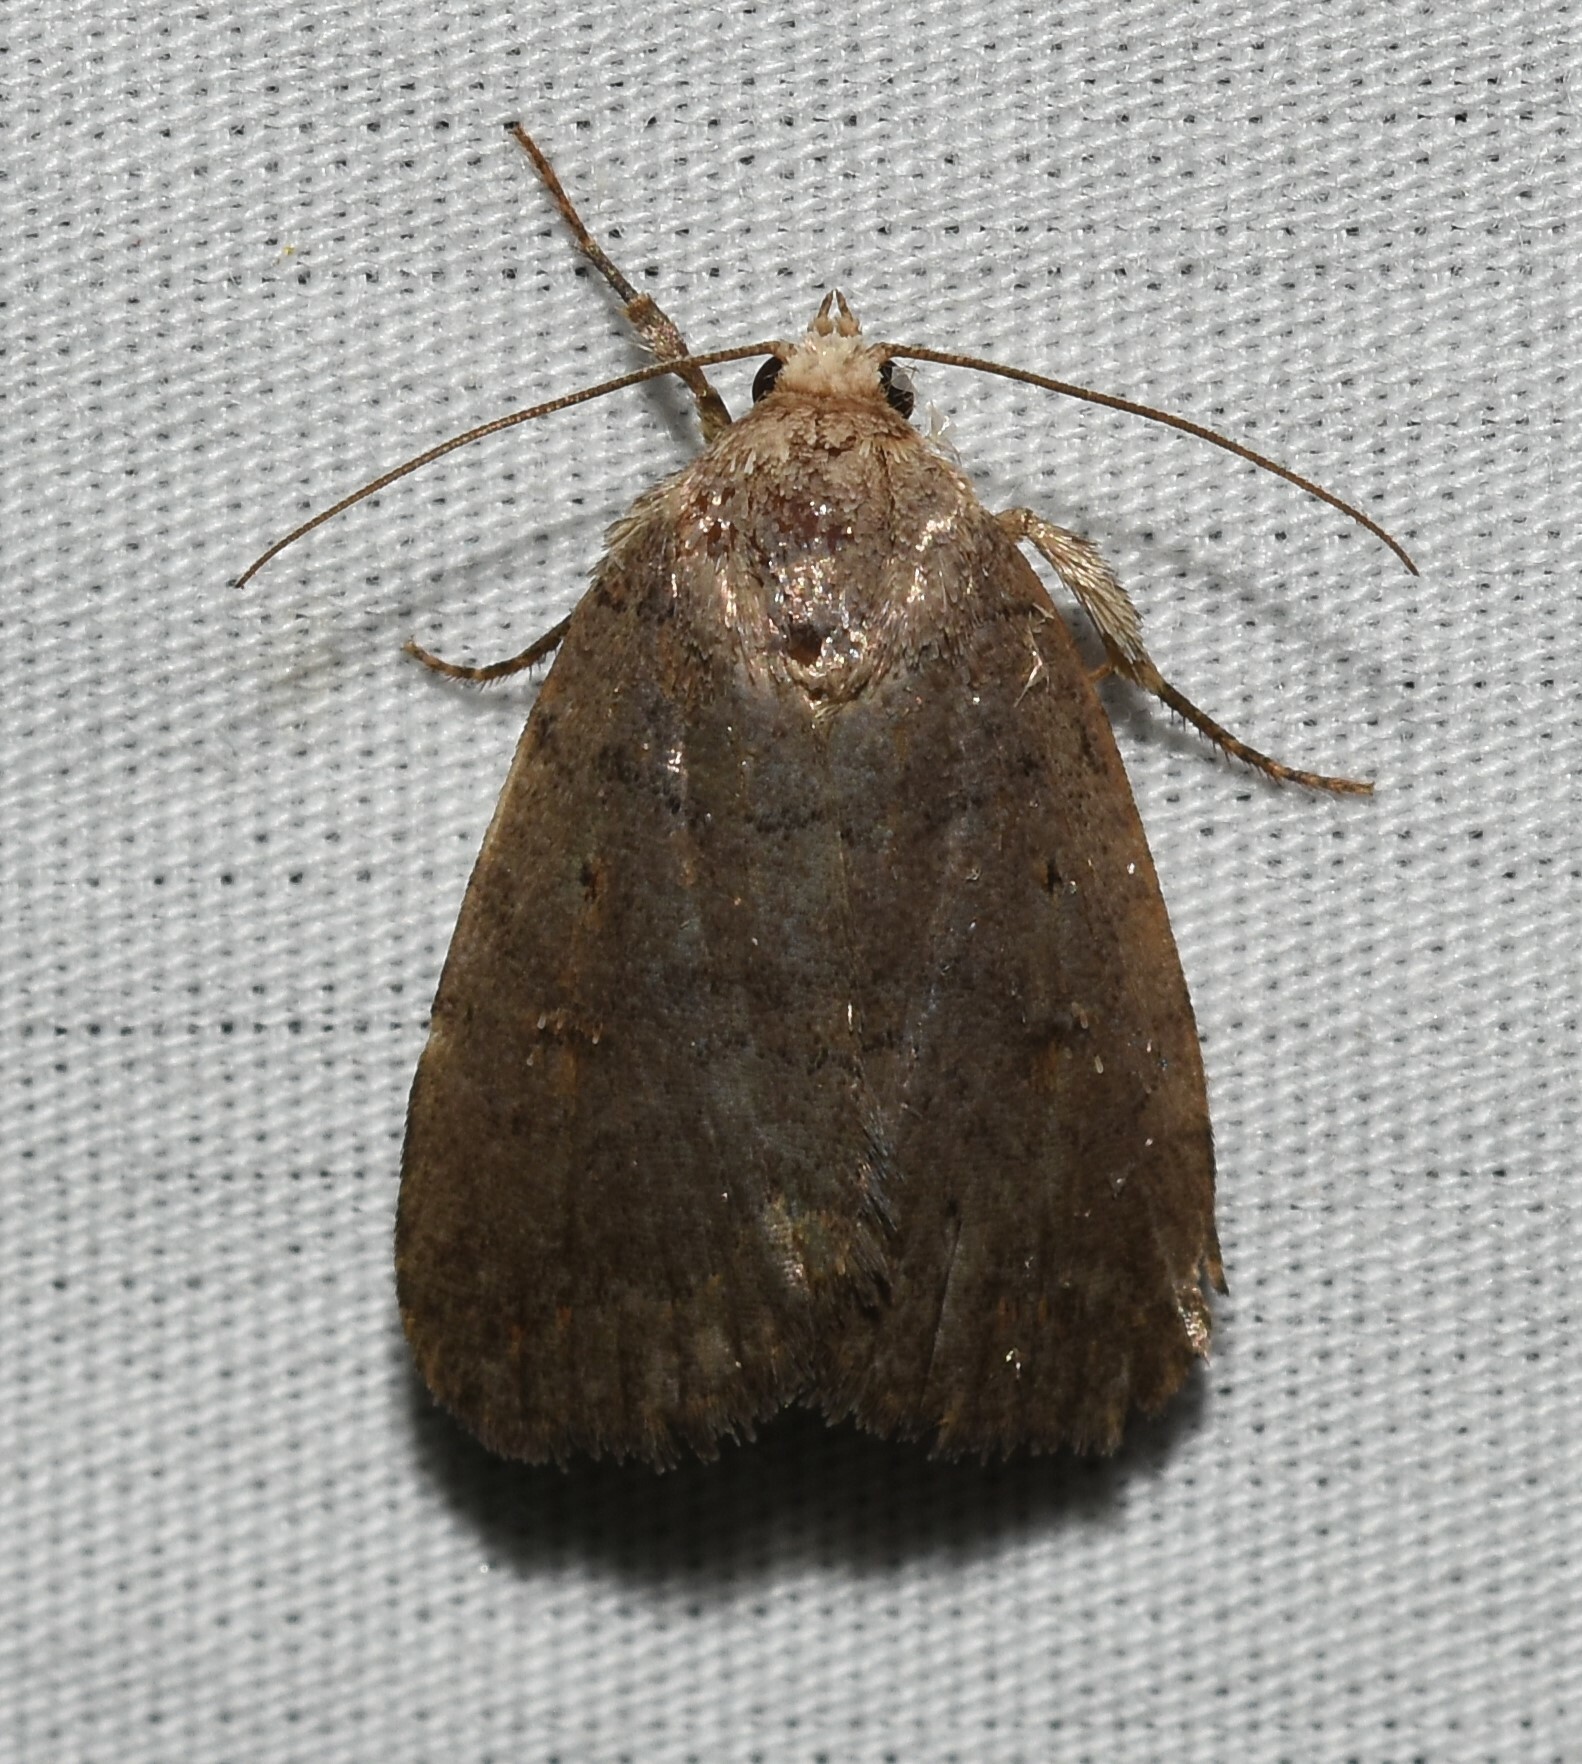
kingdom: Animalia
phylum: Arthropoda
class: Insecta
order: Lepidoptera
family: Noctuidae
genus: Athetis
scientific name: Athetis tarda
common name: Slowpoke moth
